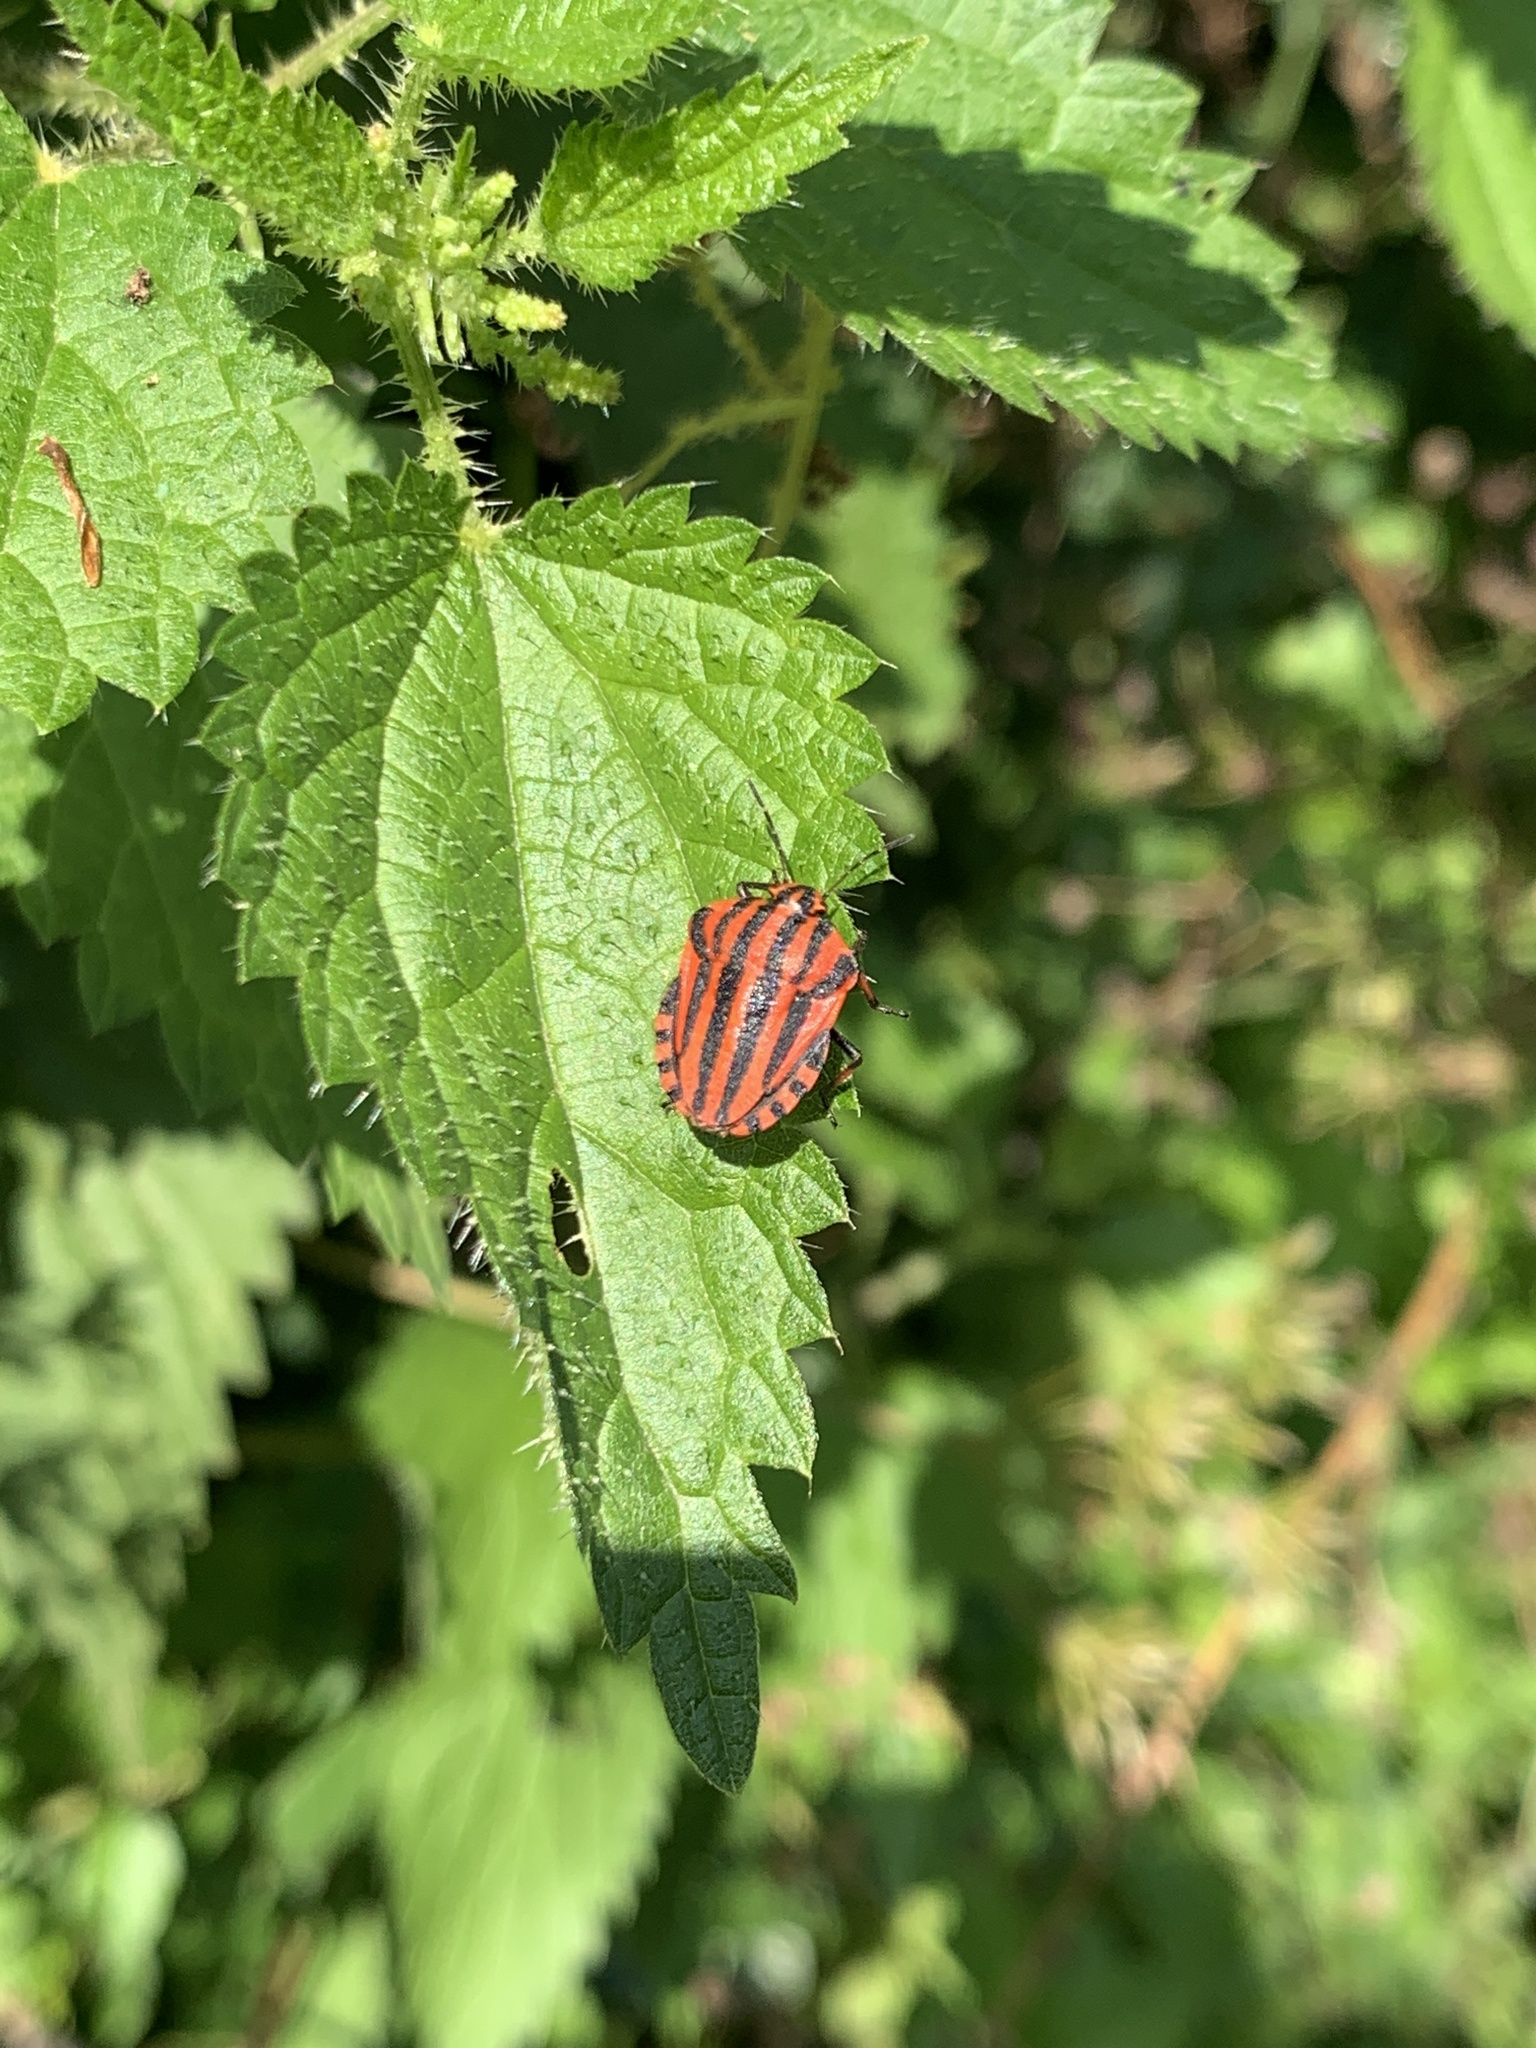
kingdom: Animalia
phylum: Arthropoda
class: Insecta
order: Hemiptera
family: Pentatomidae
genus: Graphosoma
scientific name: Graphosoma italicum
